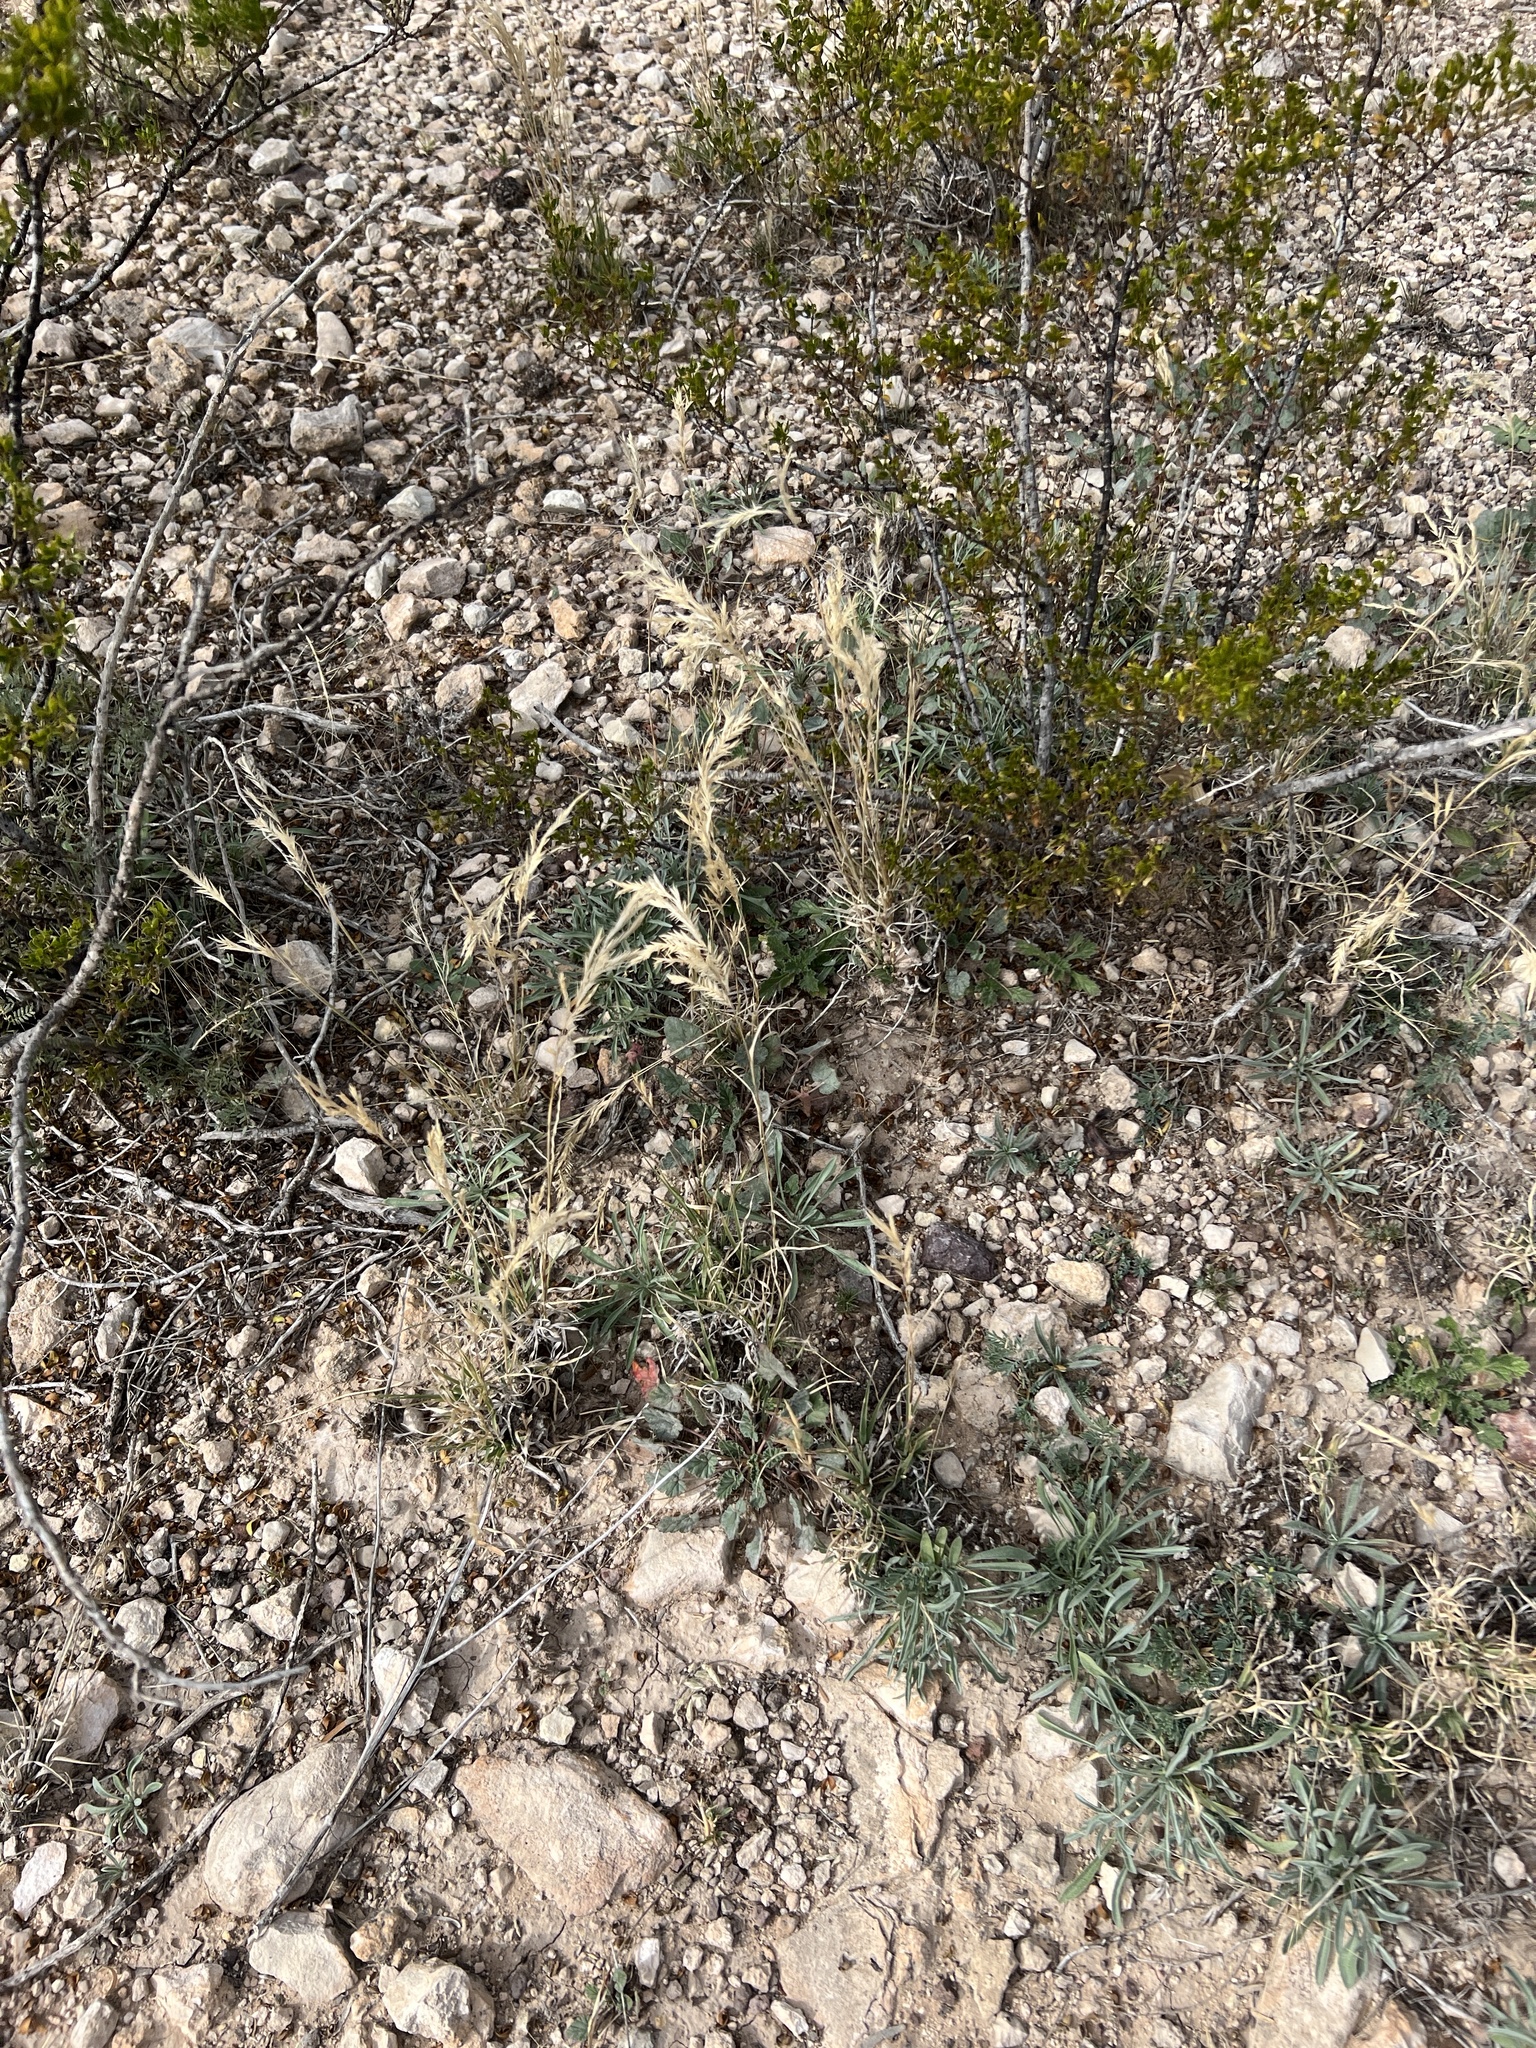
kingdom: Plantae
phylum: Tracheophyta
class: Liliopsida
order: Poales
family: Poaceae
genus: Scleropogon
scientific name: Scleropogon brevifolius
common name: Burro grass
